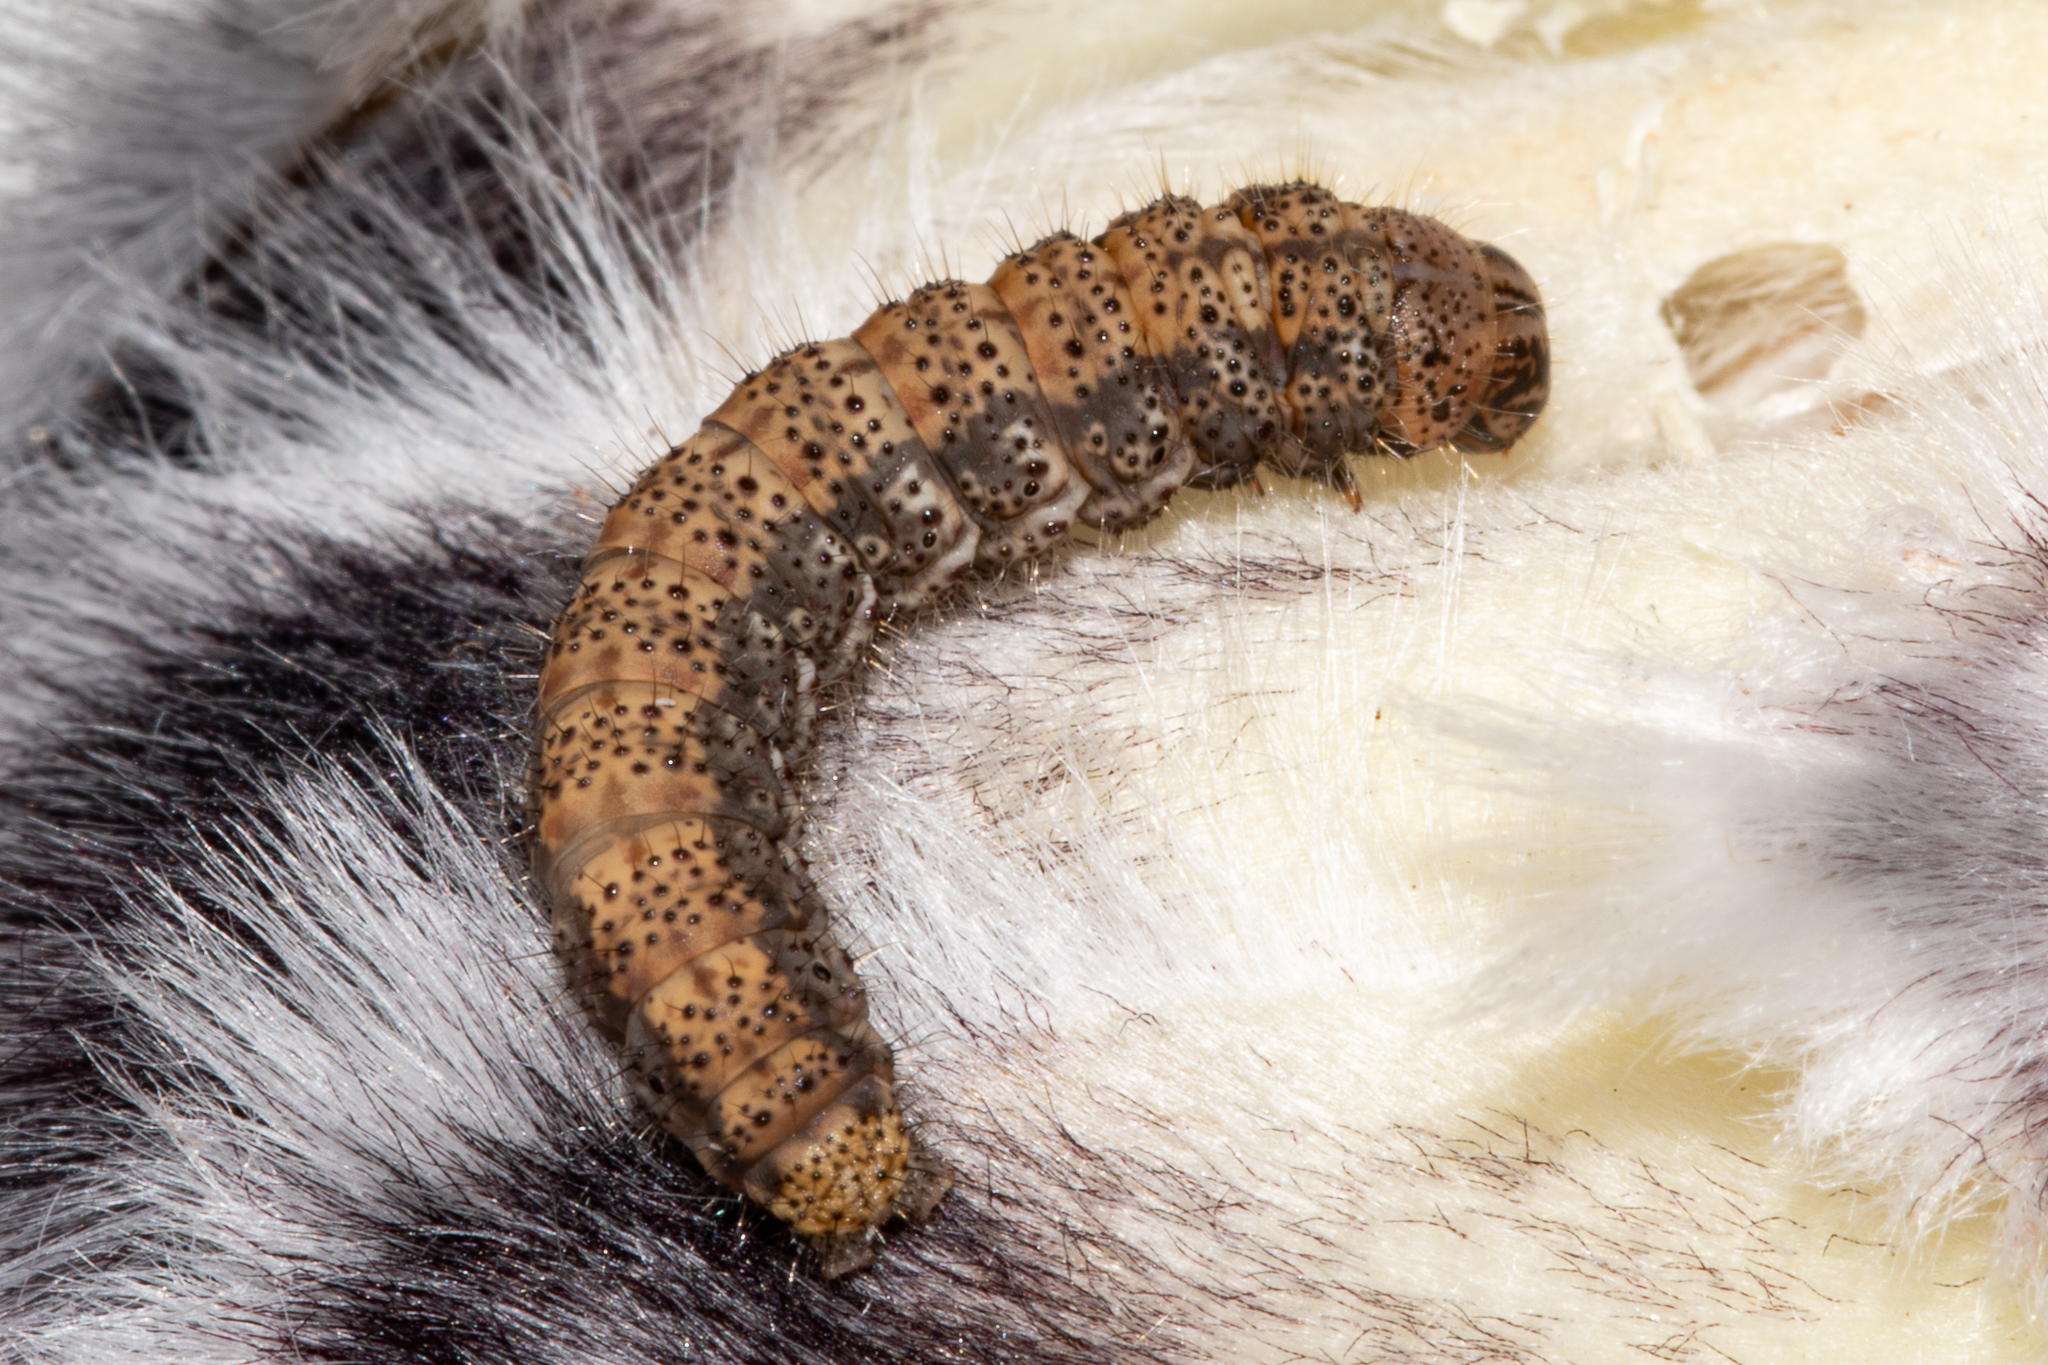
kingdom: Animalia
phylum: Arthropoda
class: Insecta
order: Lepidoptera
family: Depressariidae
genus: Cryptolechia
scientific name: Cryptolechia ammopleura
